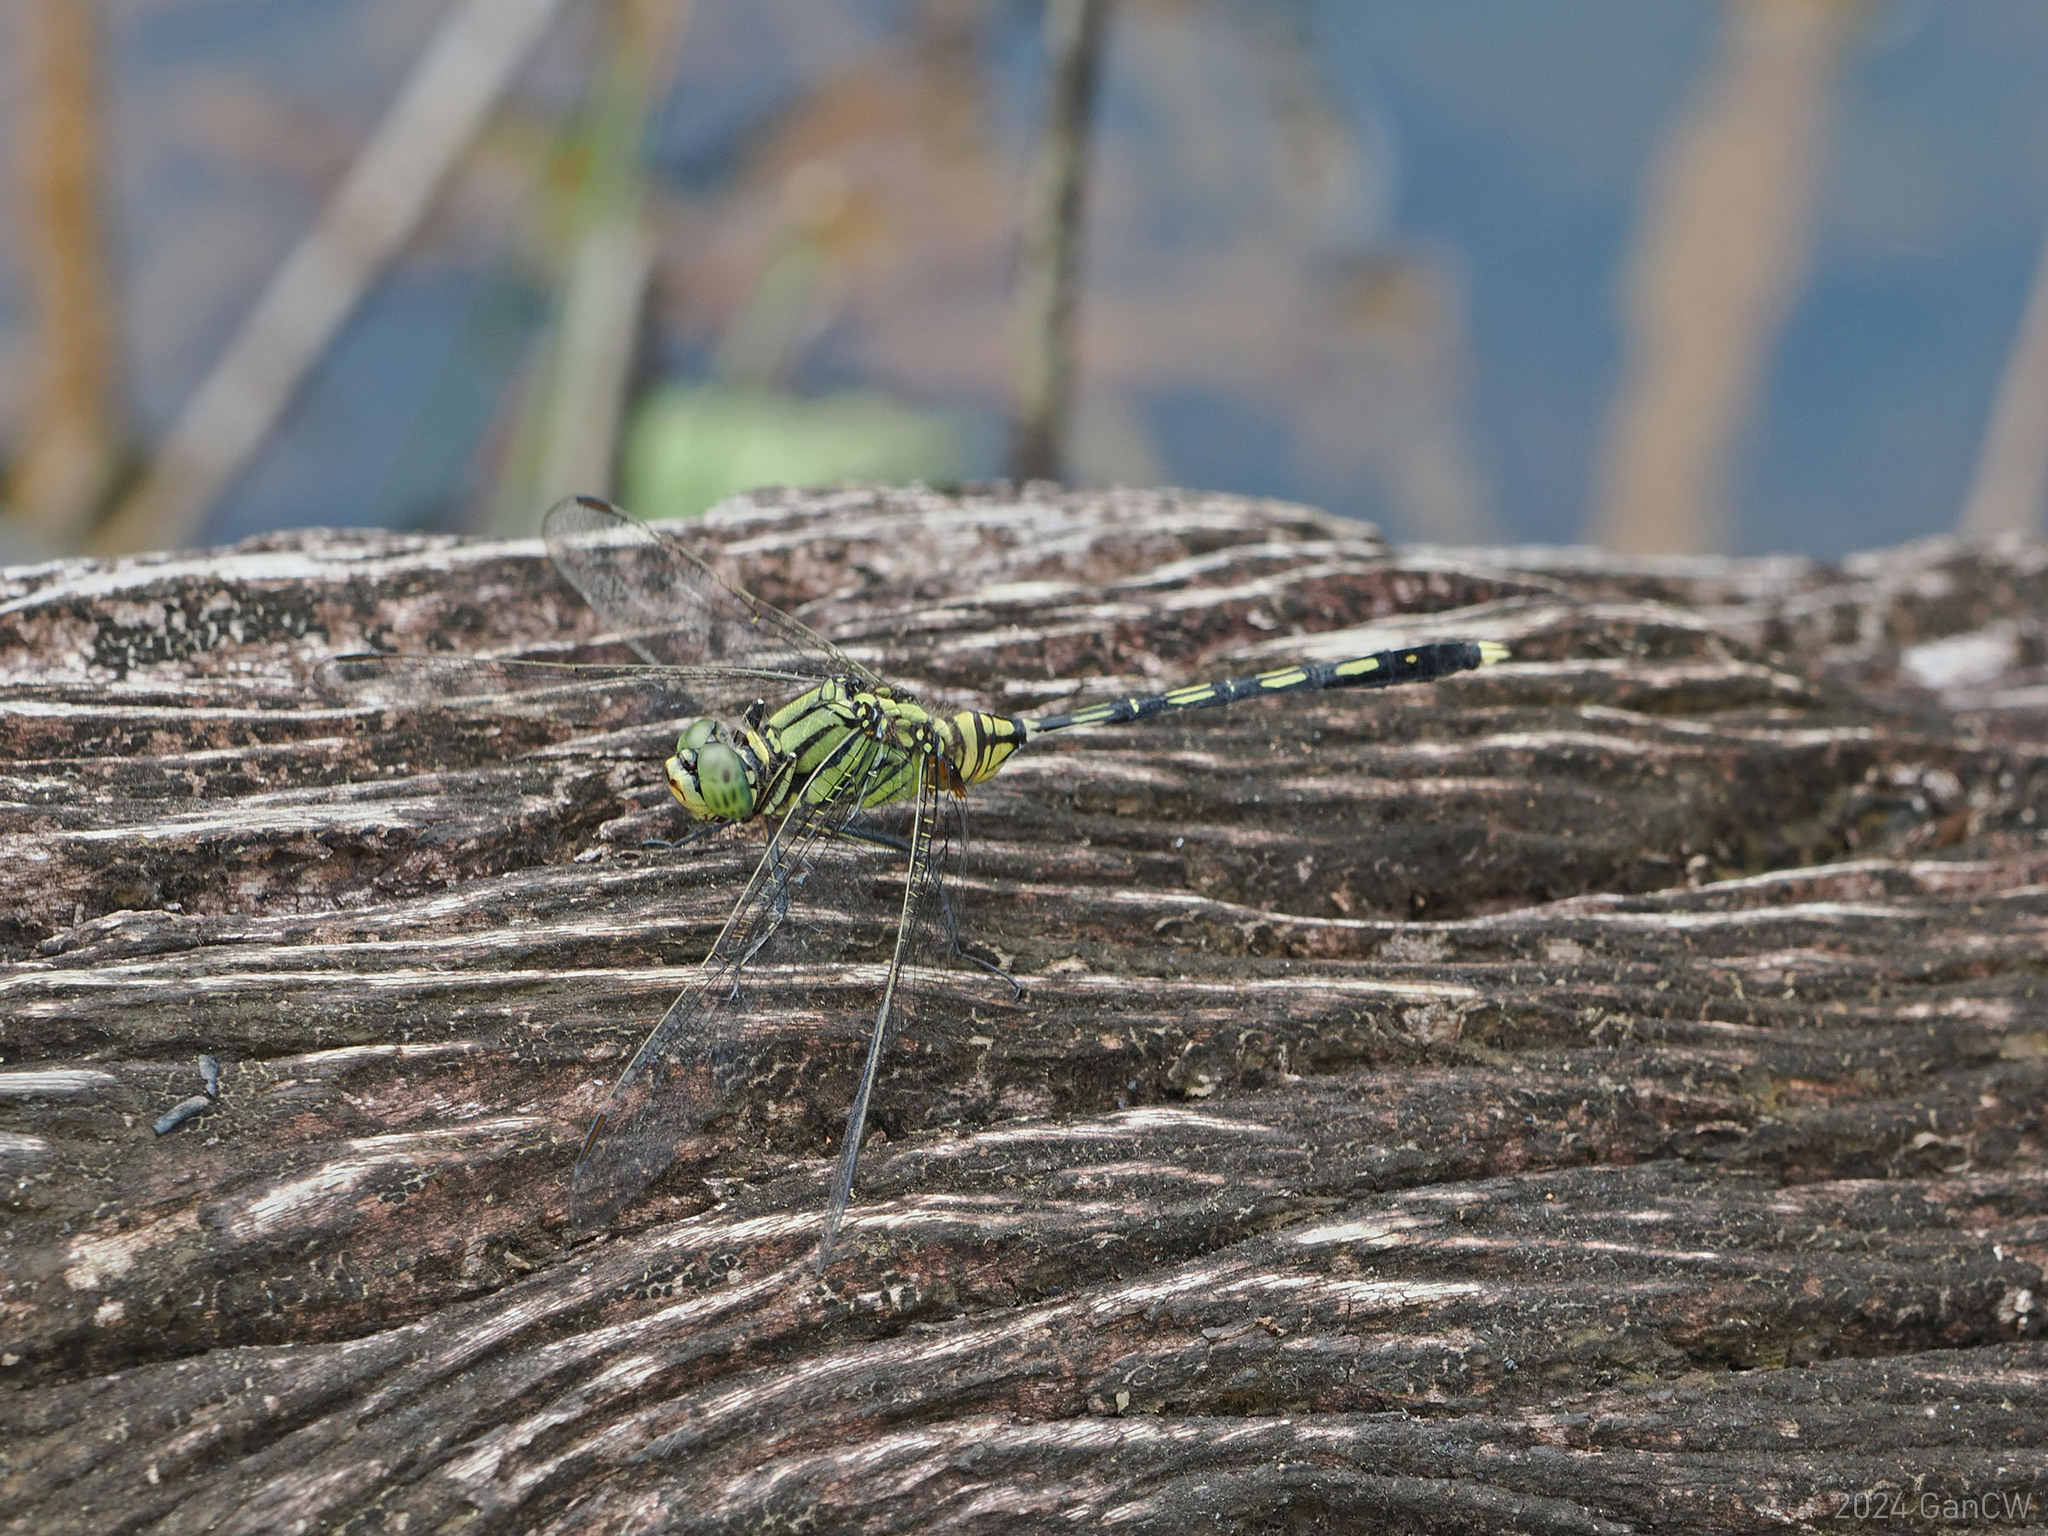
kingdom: Animalia
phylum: Arthropoda
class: Insecta
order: Odonata
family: Libellulidae
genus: Orthetrum
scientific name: Orthetrum serapia
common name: Green skimmer
